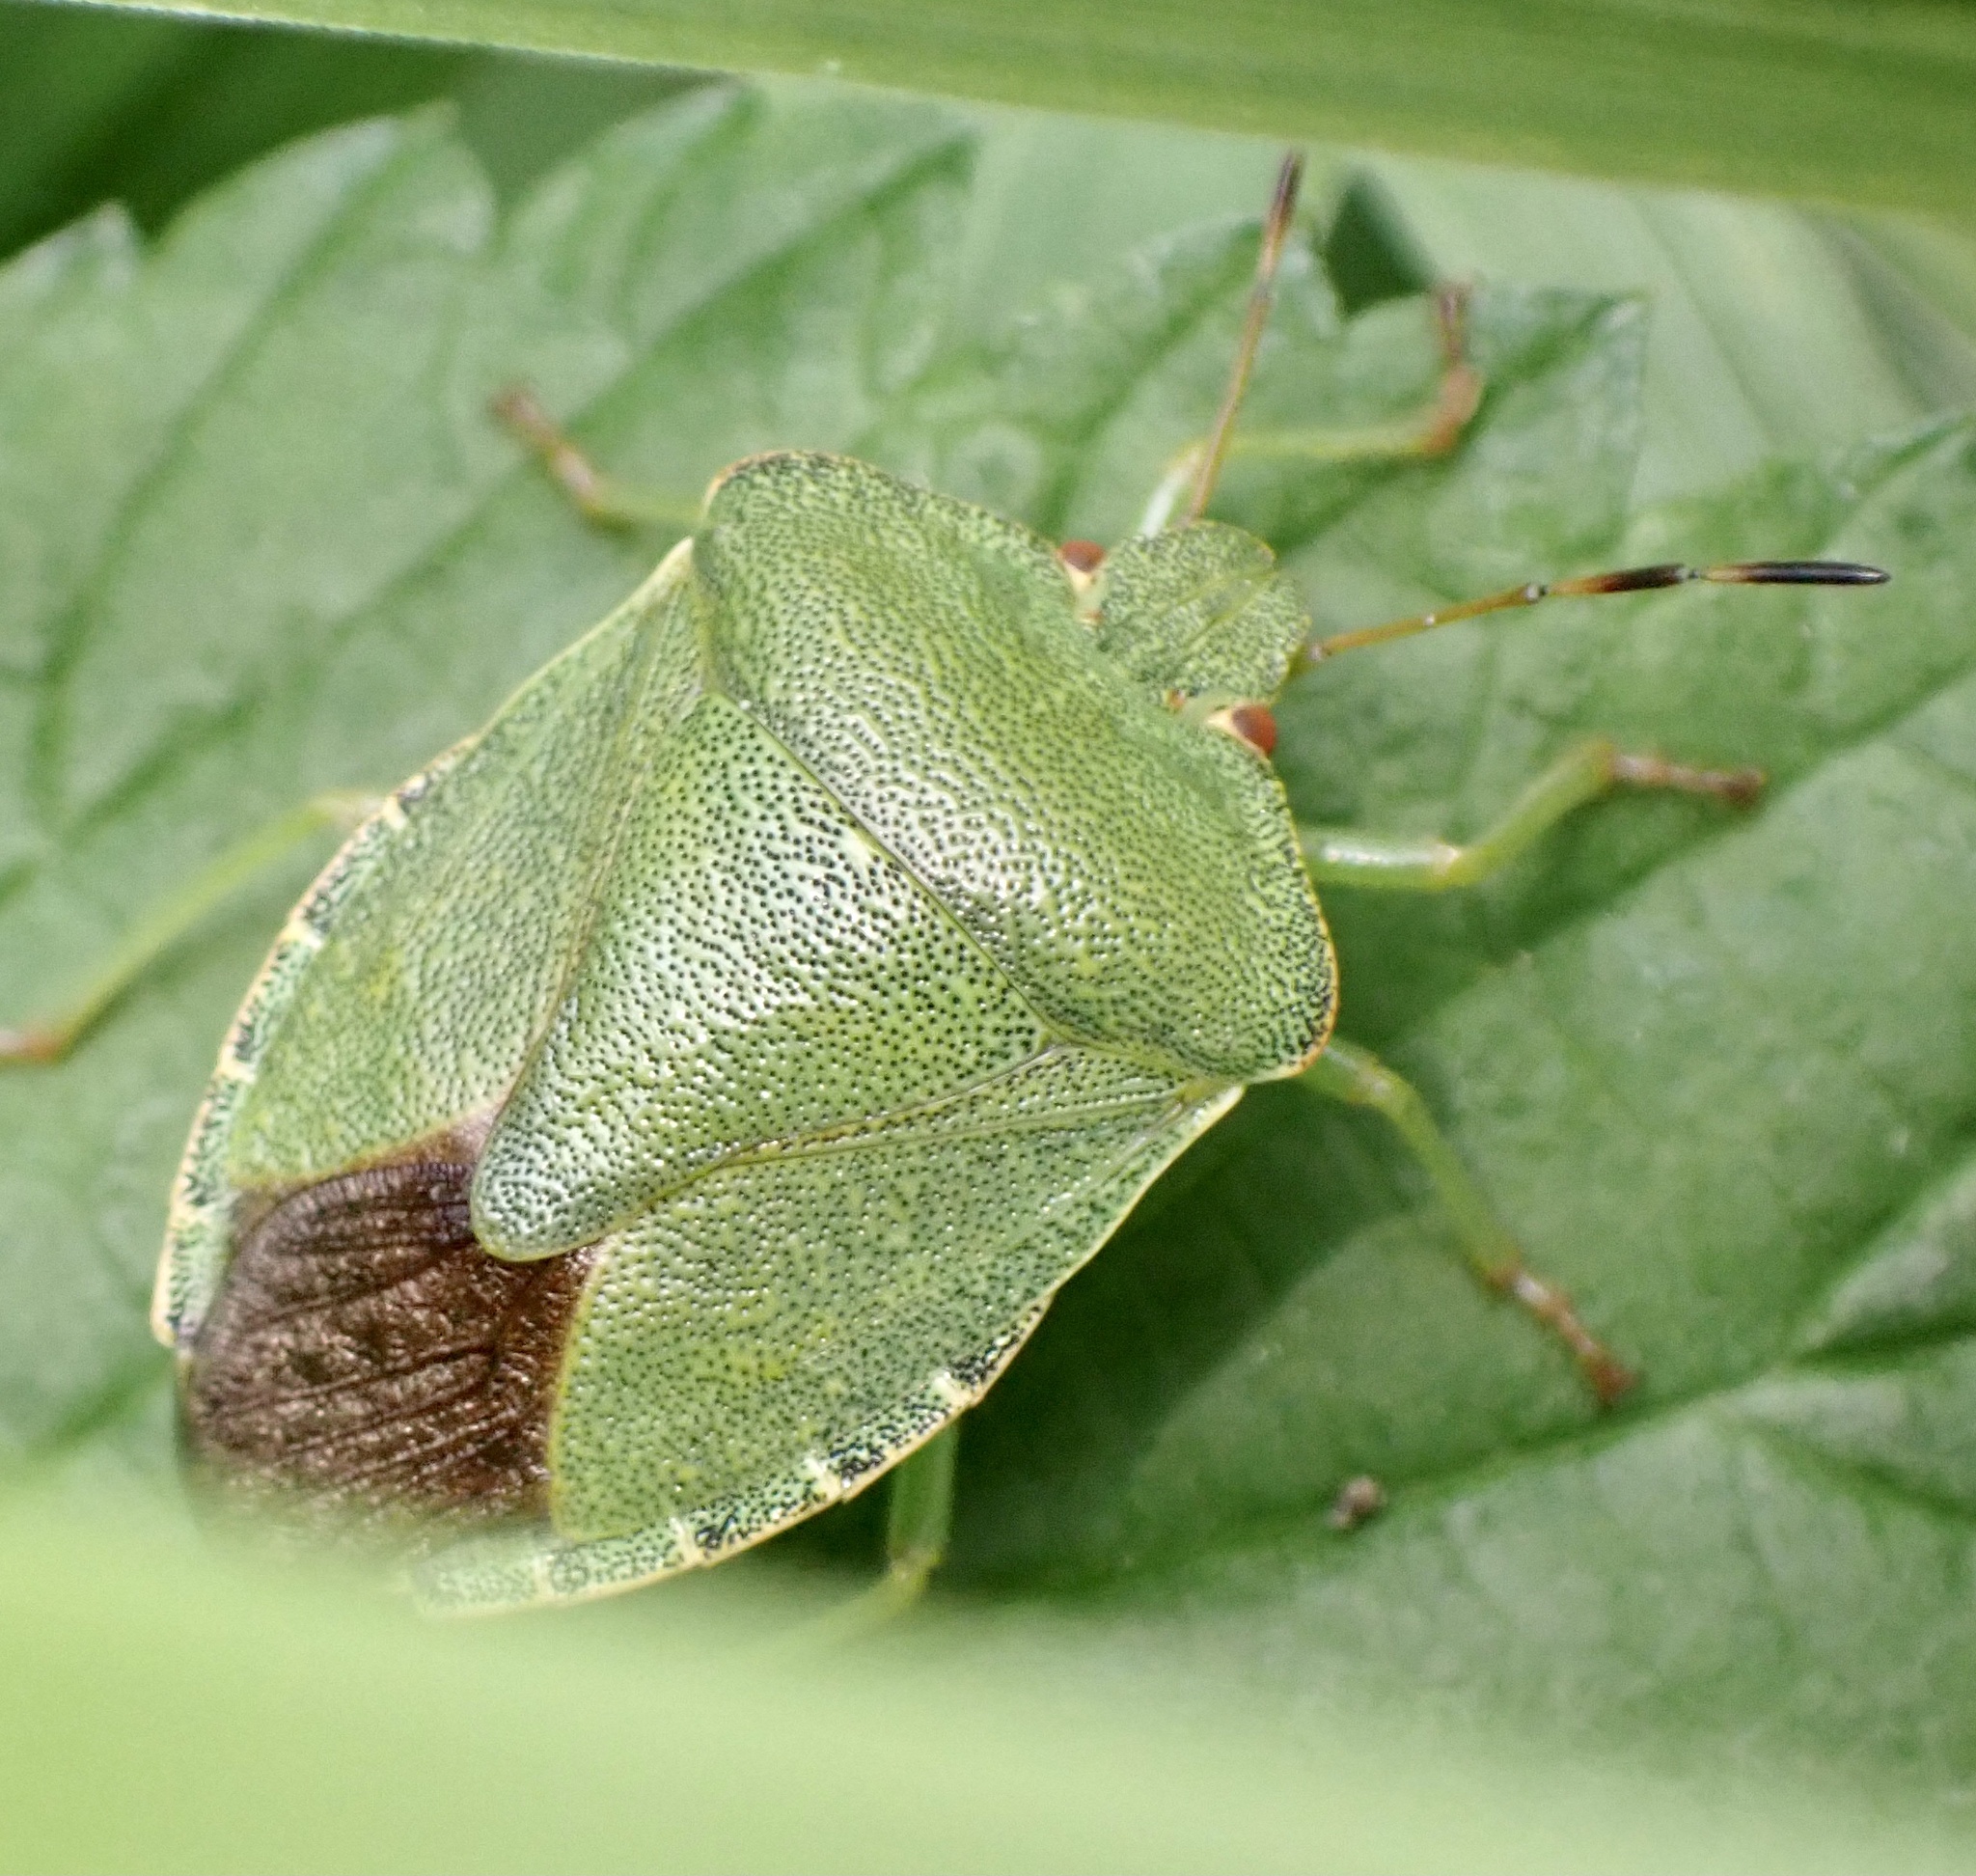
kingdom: Animalia
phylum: Arthropoda
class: Insecta
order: Hemiptera
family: Pentatomidae
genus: Palomena
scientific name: Palomena prasina
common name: Green shieldbug
